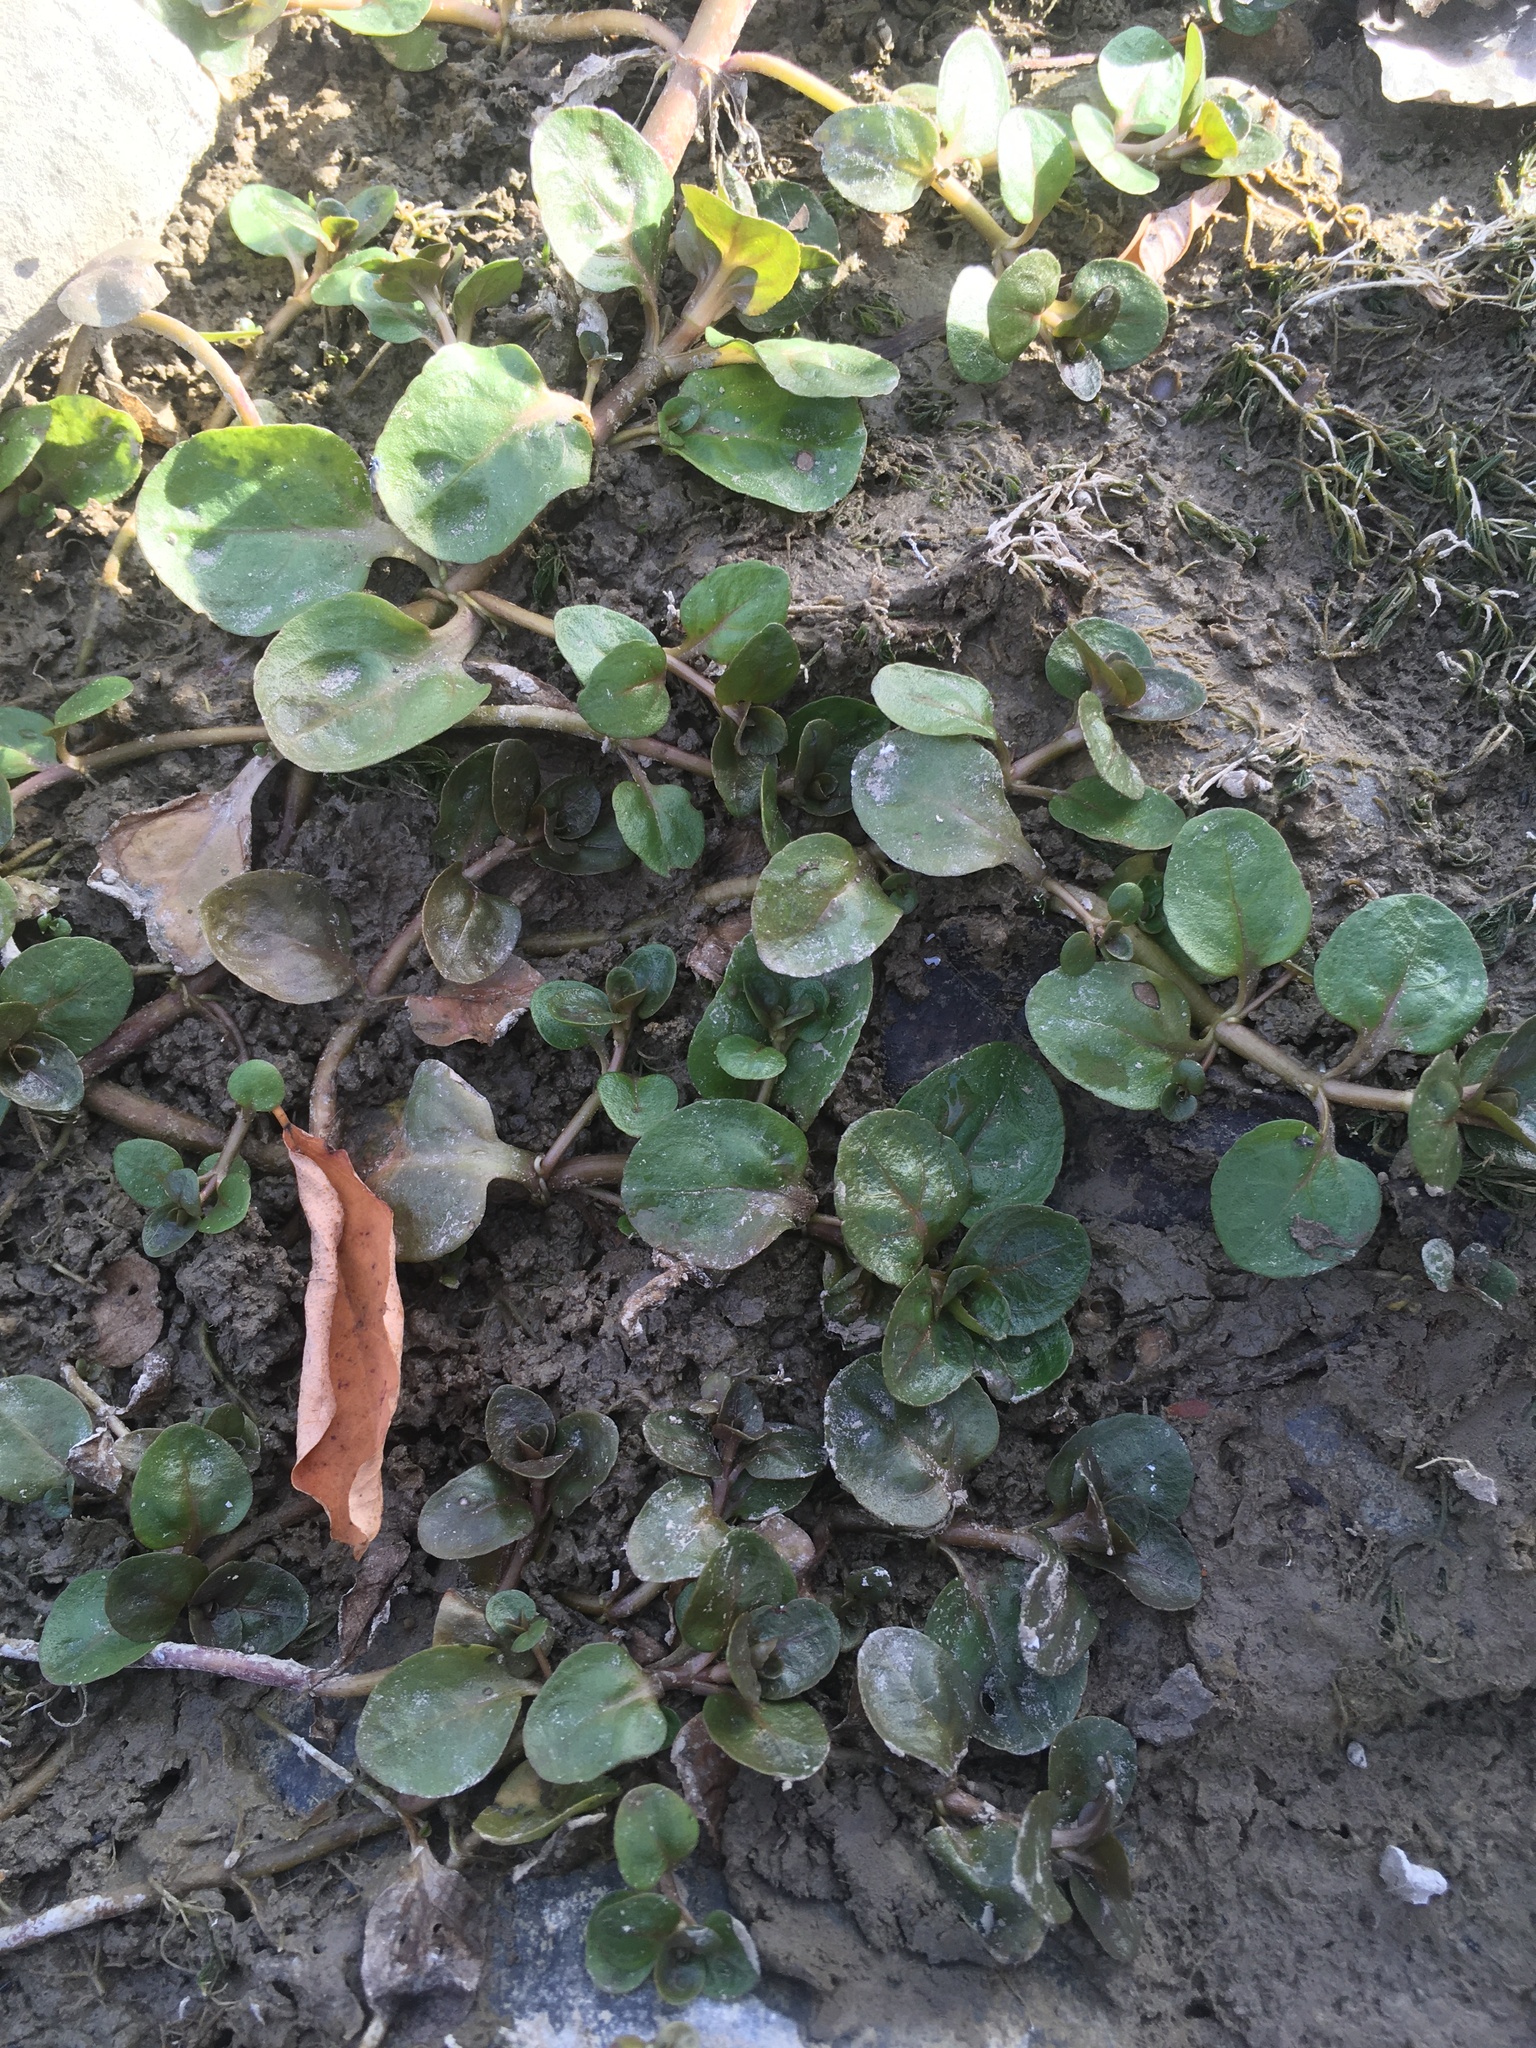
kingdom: Plantae
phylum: Tracheophyta
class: Magnoliopsida
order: Lamiales
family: Plantaginaceae
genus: Veronica
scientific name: Veronica serpyllifolia
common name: Thyme-leaved speedwell
